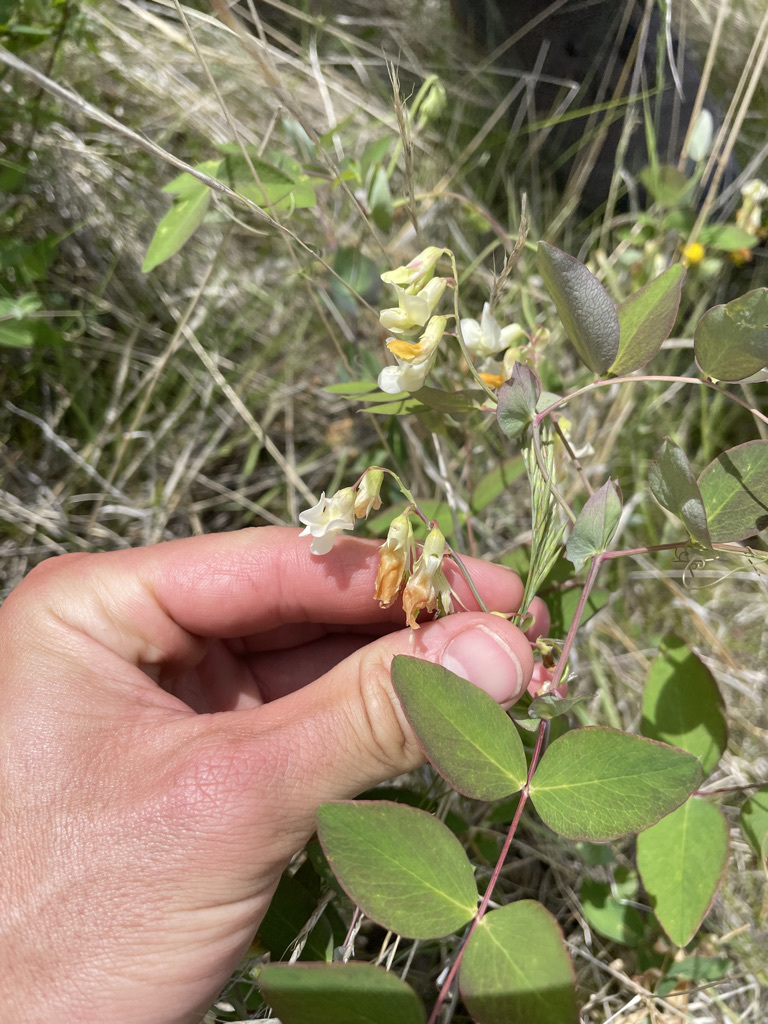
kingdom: Plantae
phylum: Tracheophyta
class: Magnoliopsida
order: Fabales
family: Fabaceae
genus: Lathyrus
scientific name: Lathyrus ochroleucus
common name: Pale vetchling
